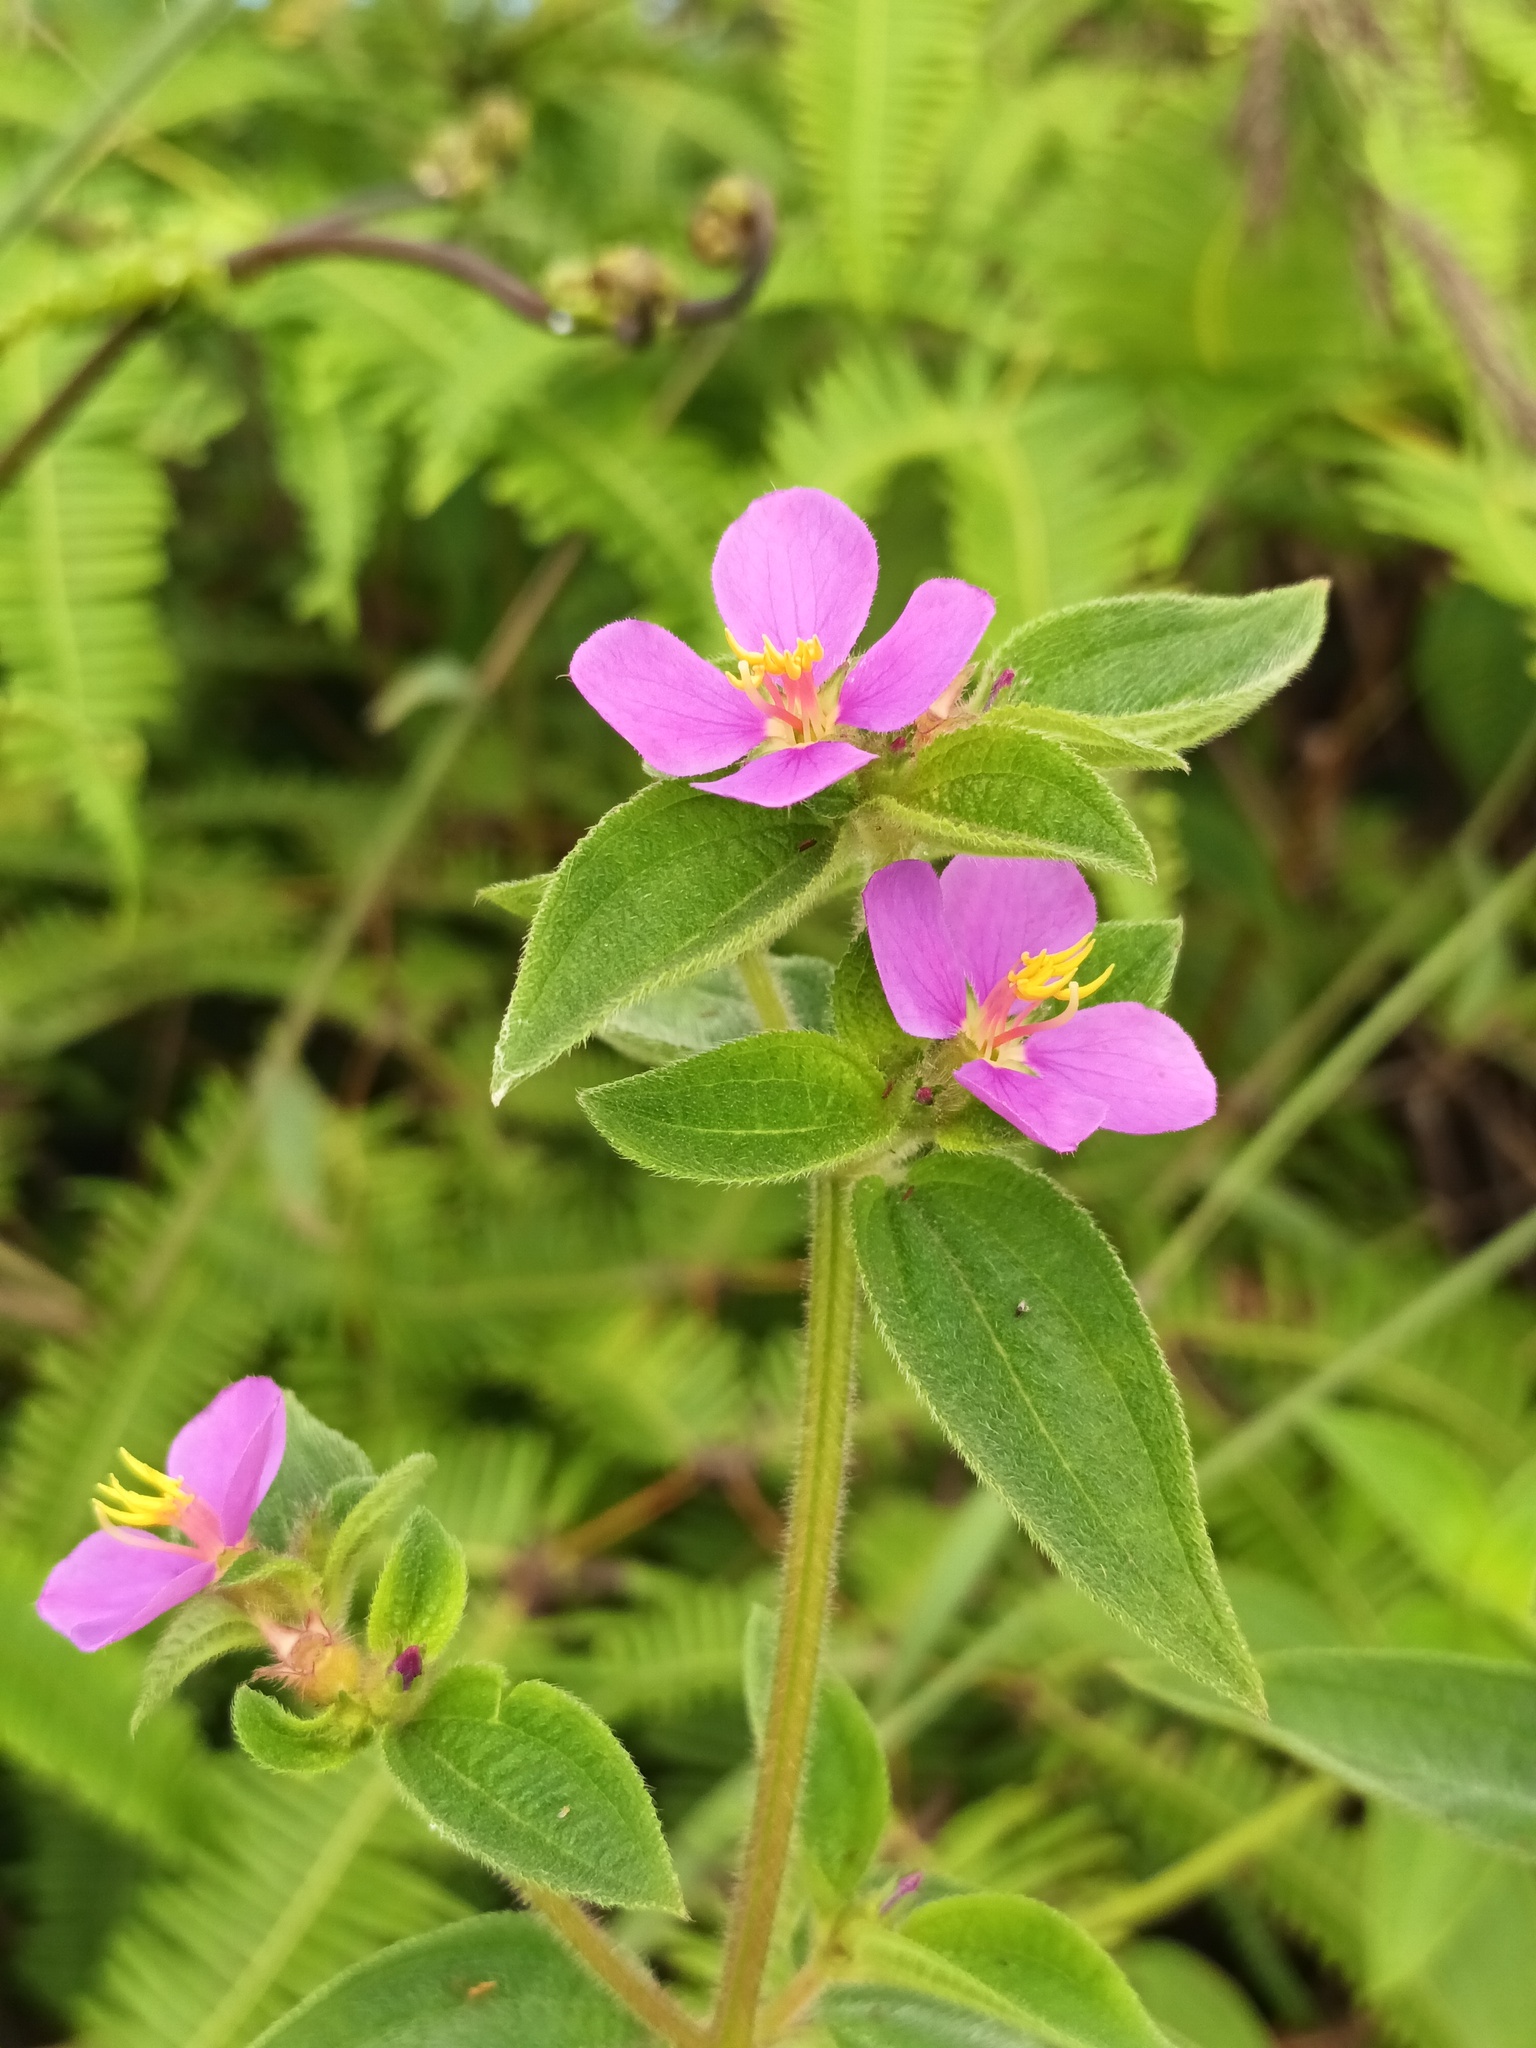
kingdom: Plantae
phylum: Tracheophyta
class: Magnoliopsida
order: Myrtales
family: Melastomataceae
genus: Chaetogastra
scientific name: Chaetogastra herbacea
